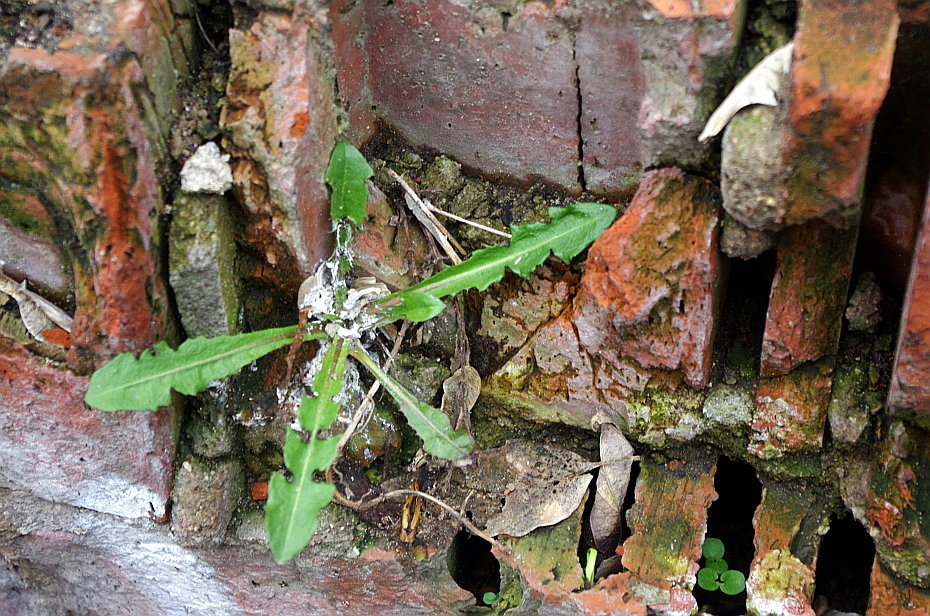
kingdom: Plantae
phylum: Tracheophyta
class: Magnoliopsida
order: Asterales
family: Asteraceae
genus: Taraxacum
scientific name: Taraxacum officinale
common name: Common dandelion
